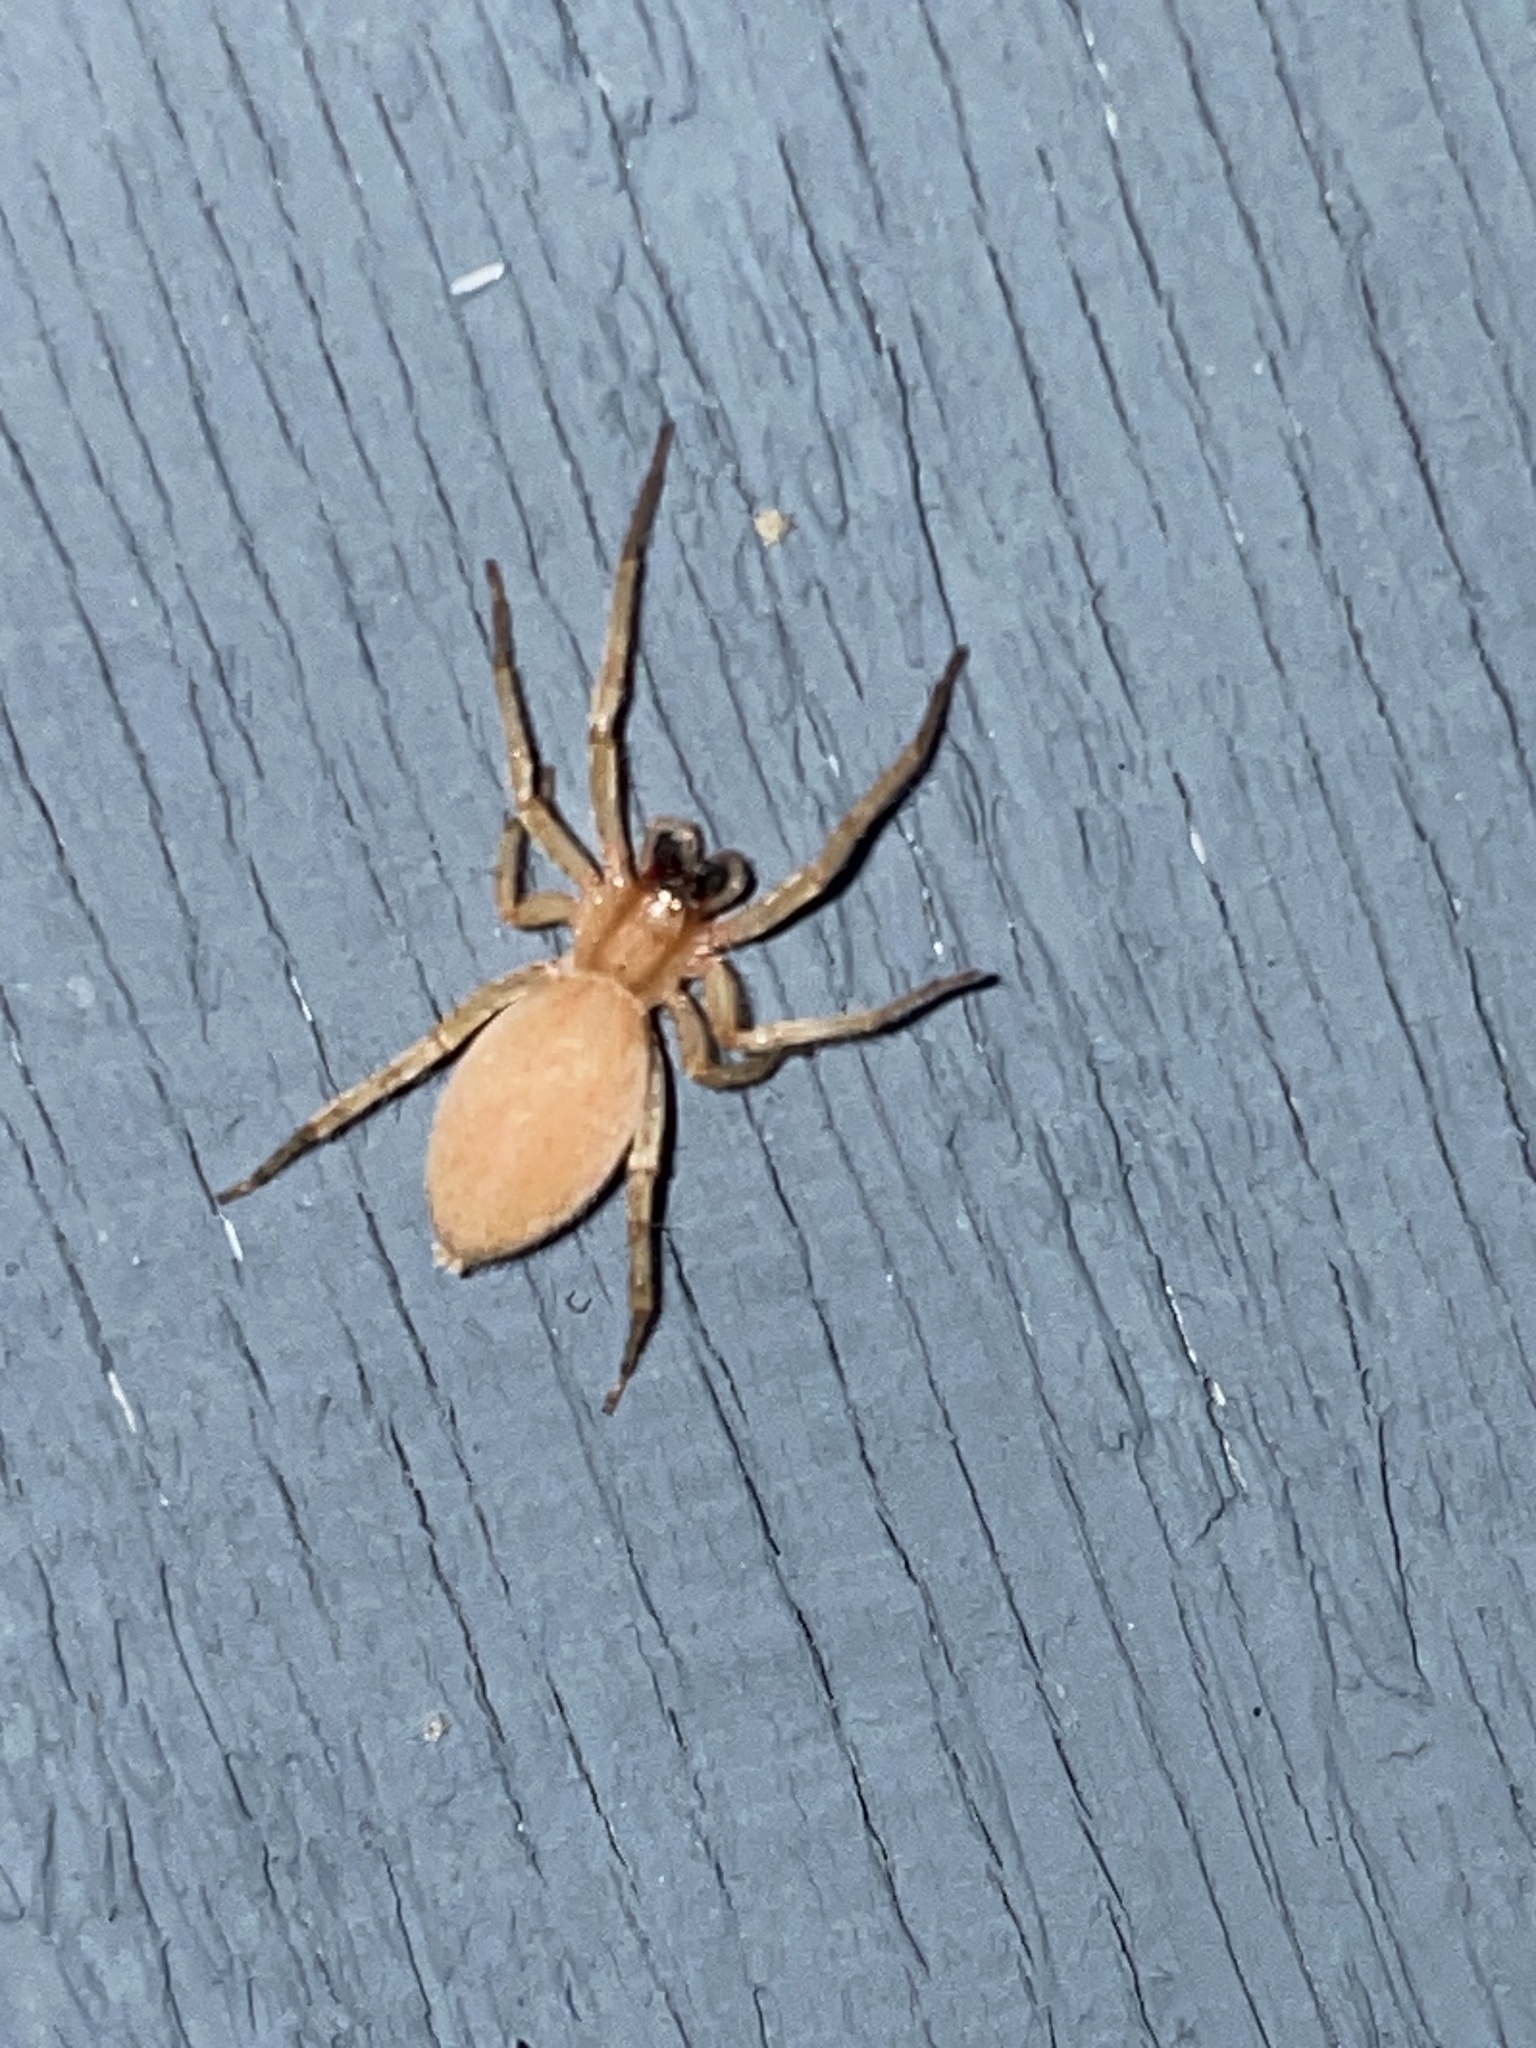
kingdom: Animalia
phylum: Arthropoda
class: Arachnida
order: Araneae
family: Anyphaenidae
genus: Hibana
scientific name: Hibana gracilis
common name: Garden ghost spider
